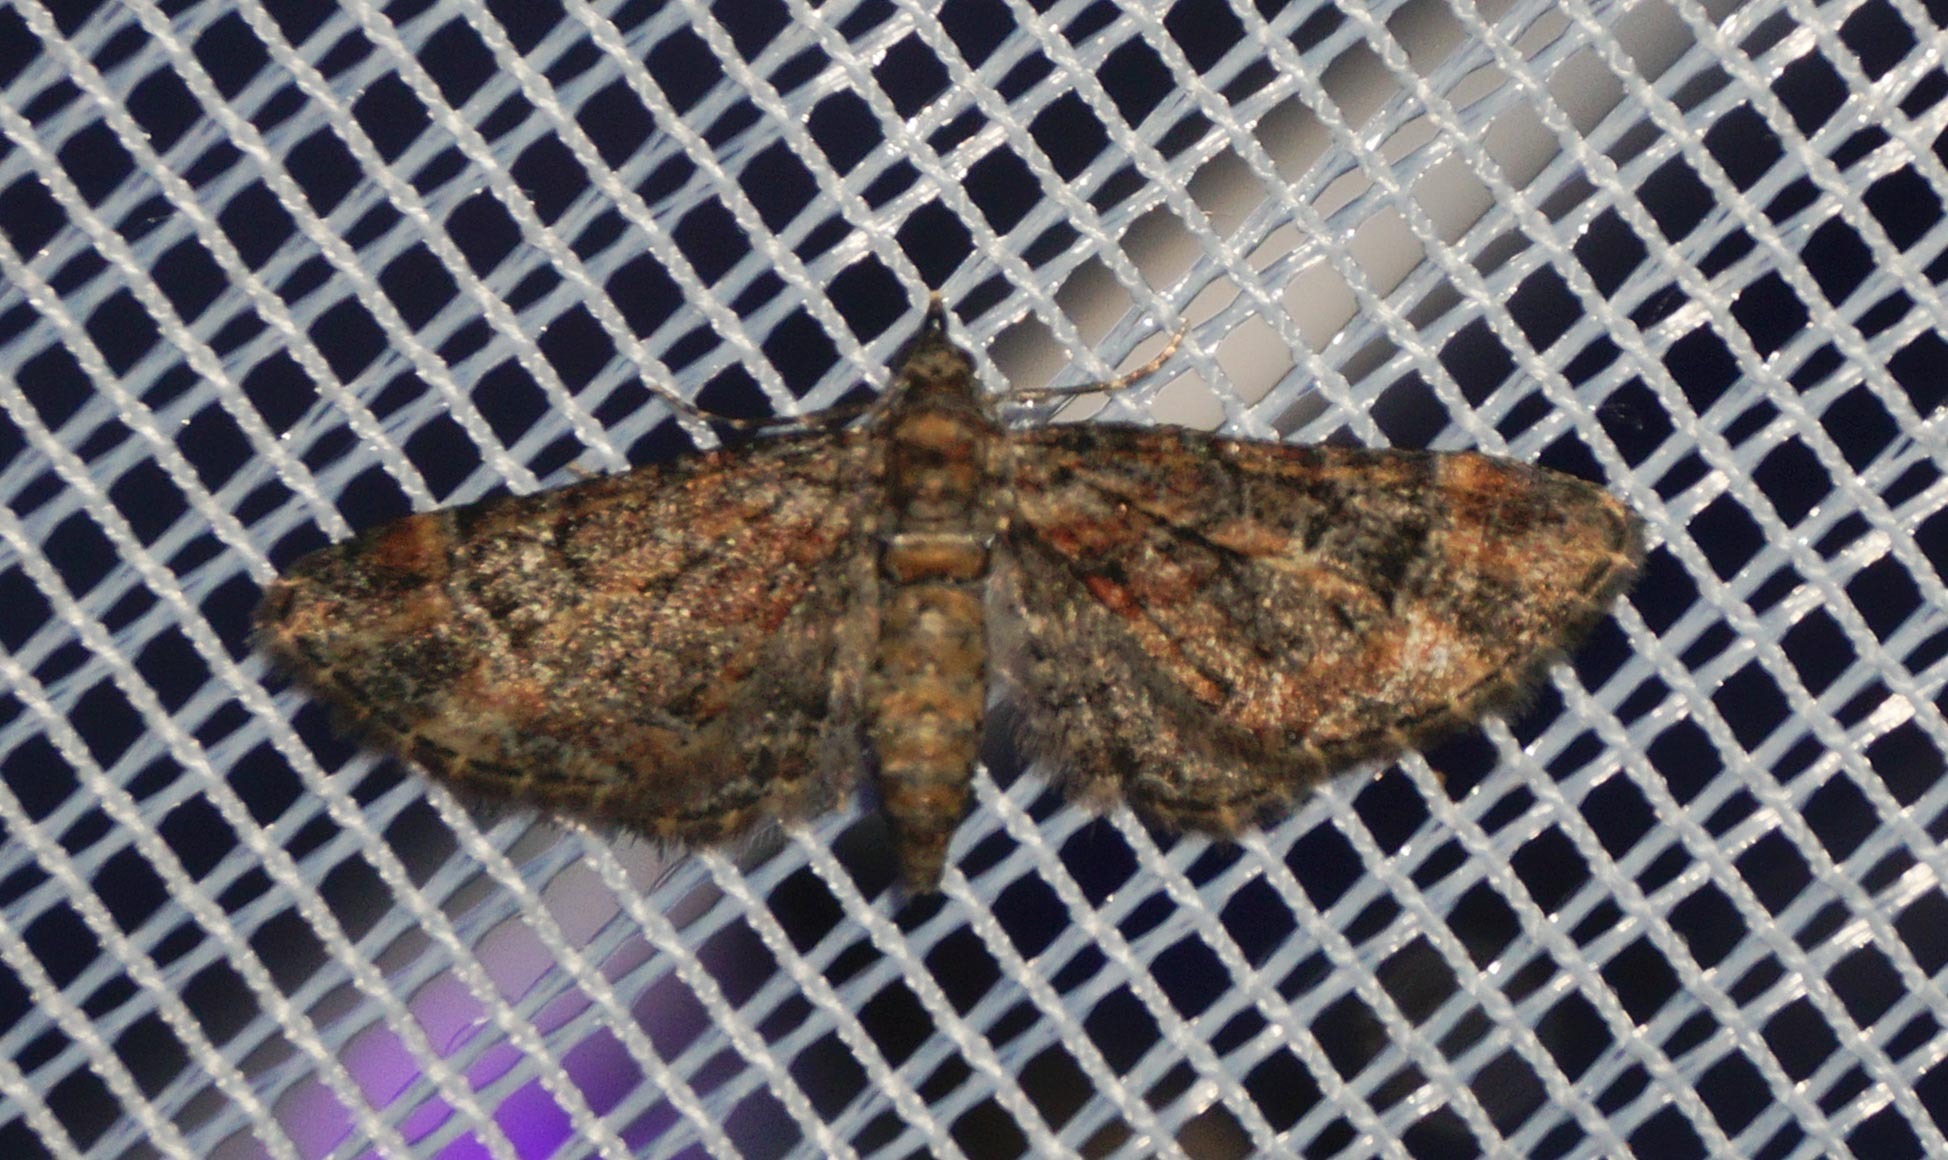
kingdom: Animalia
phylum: Arthropoda
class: Insecta
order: Lepidoptera
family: Geometridae
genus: Gymnoscelis
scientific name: Gymnoscelis rufifasciata
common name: Double-striped pug
